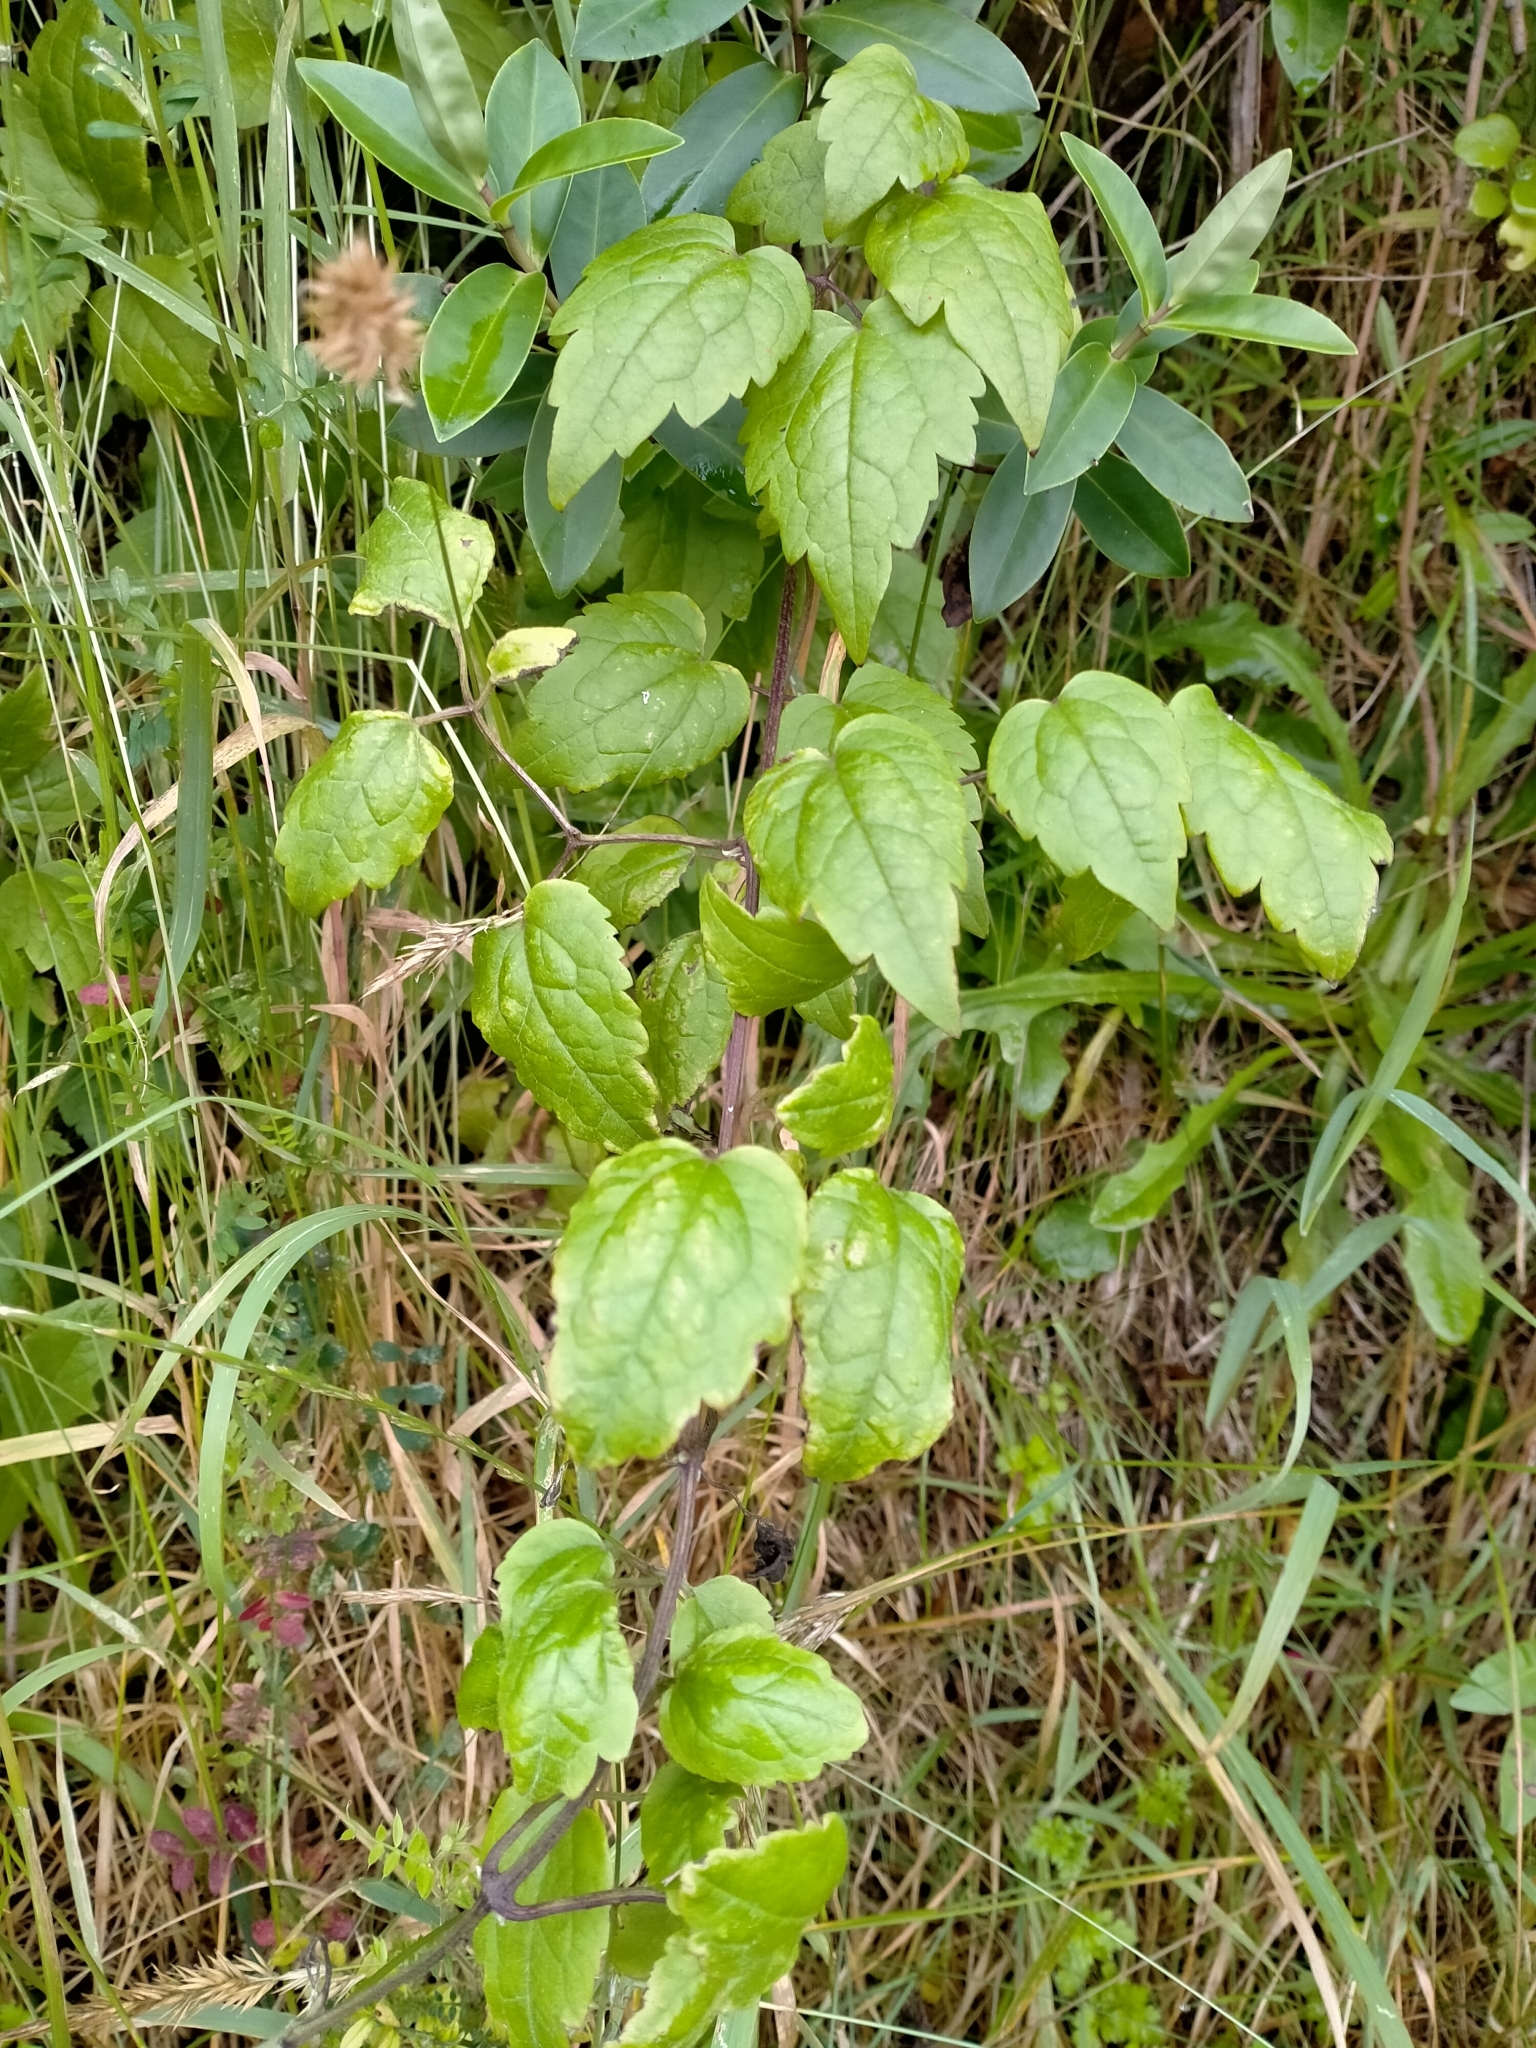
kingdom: Plantae
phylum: Tracheophyta
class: Magnoliopsida
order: Ranunculales
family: Ranunculaceae
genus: Clematis
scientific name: Clematis vitalba
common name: Evergreen clematis
